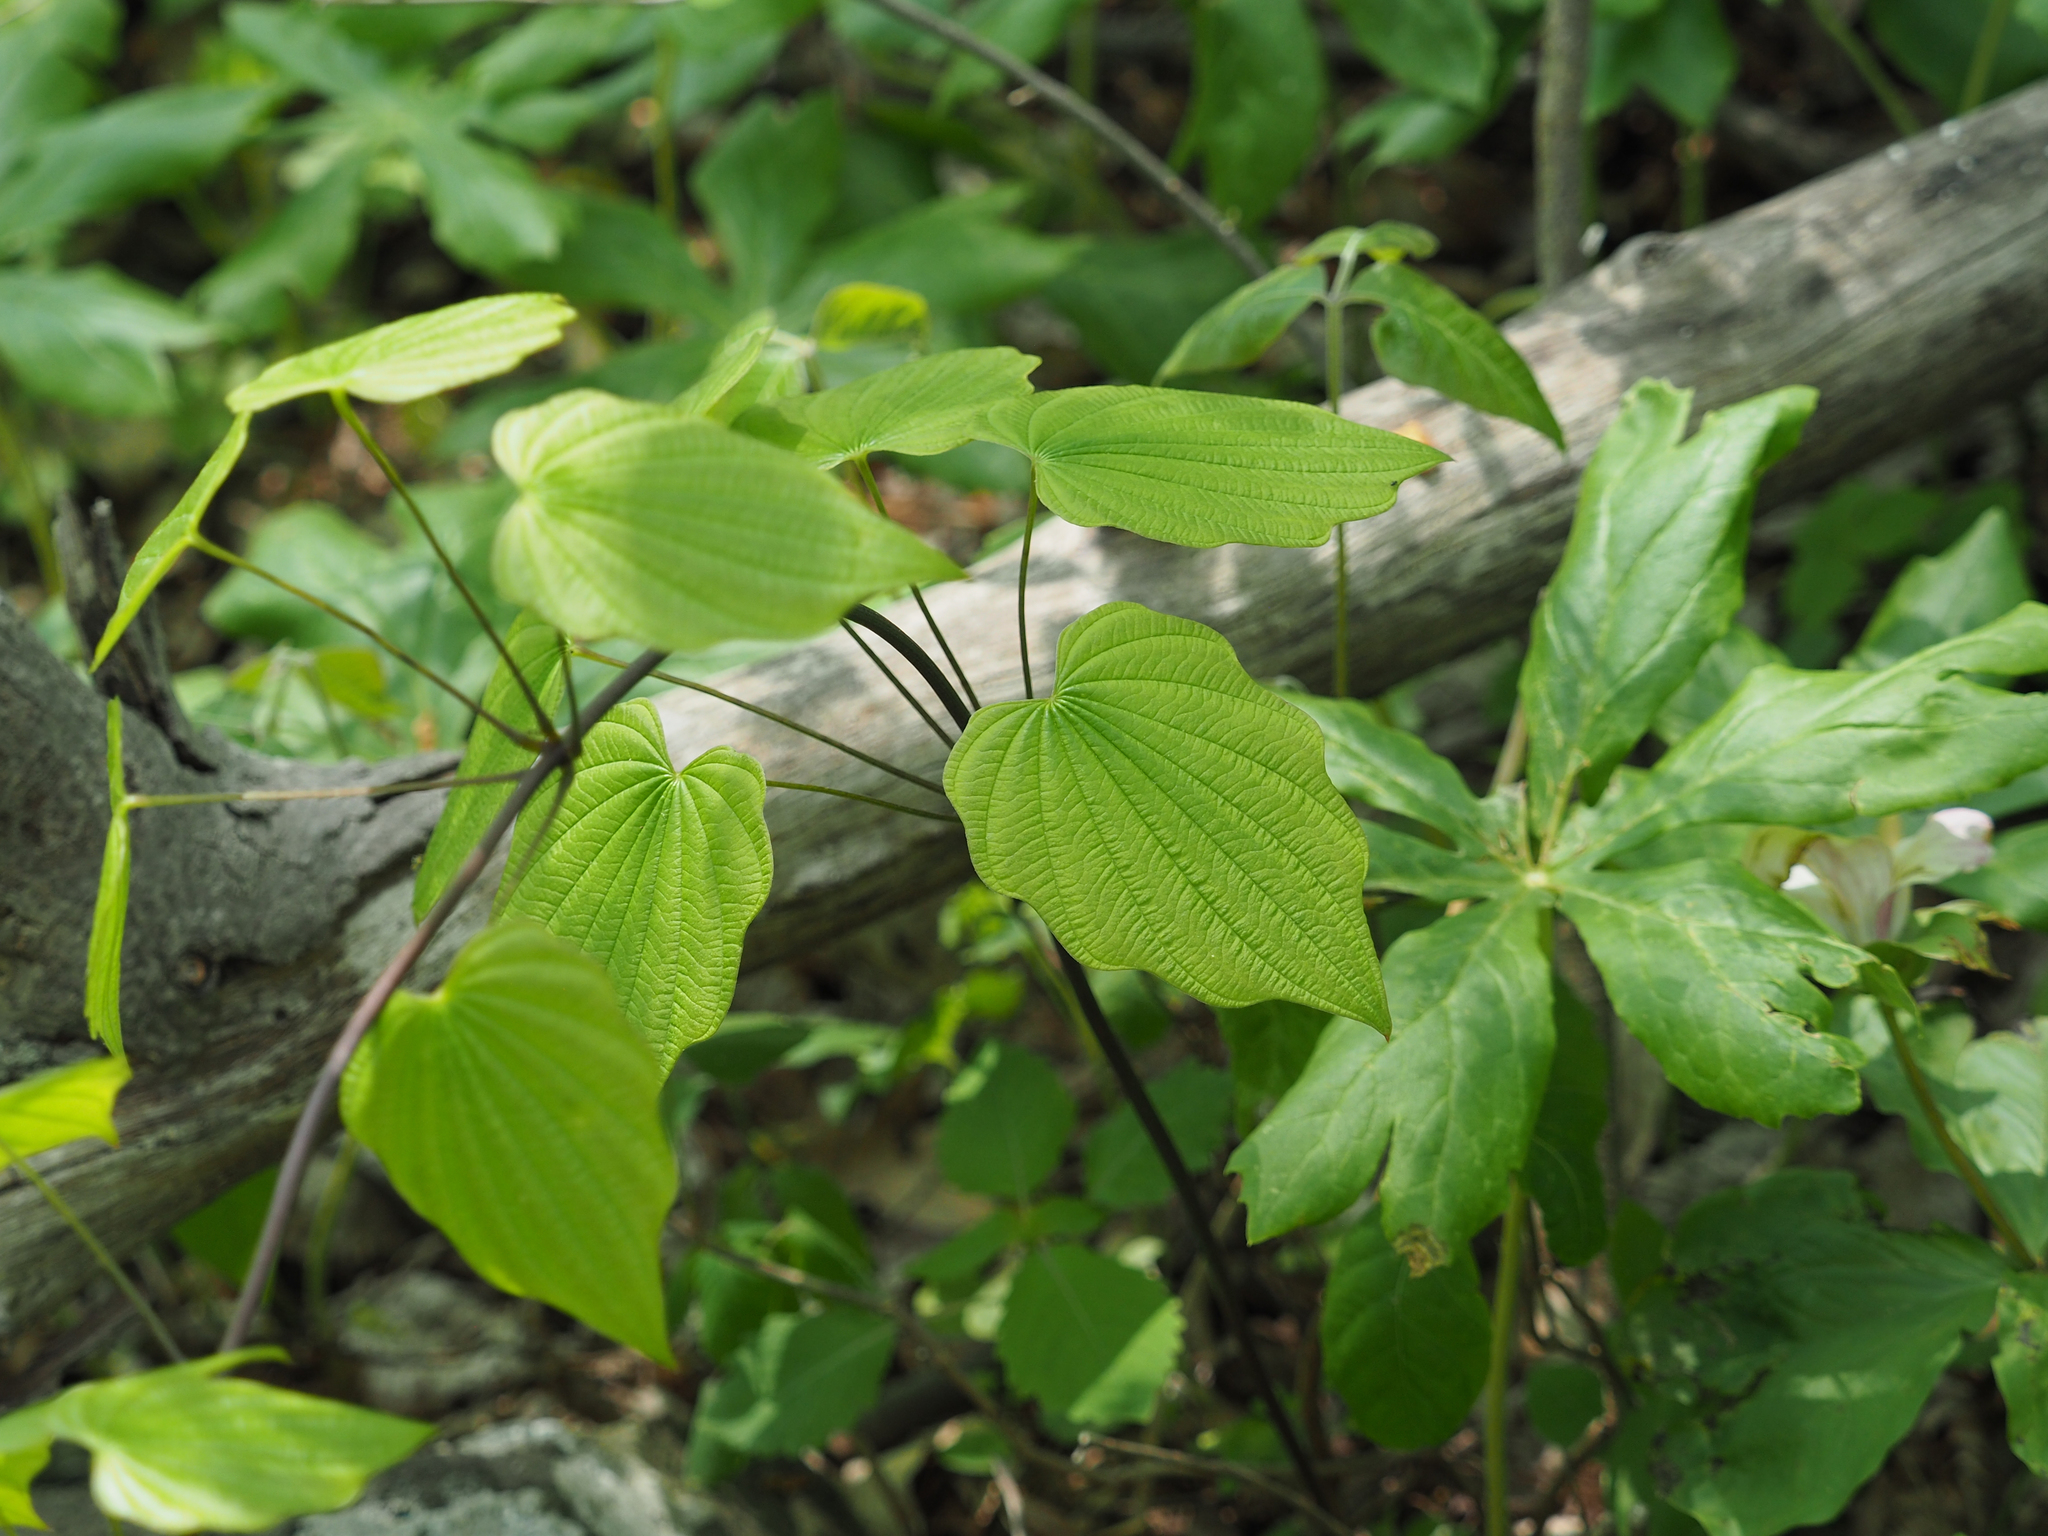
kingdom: Plantae
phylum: Tracheophyta
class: Liliopsida
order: Dioscoreales
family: Dioscoreaceae
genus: Dioscorea
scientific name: Dioscorea villosa
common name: Wild yam
